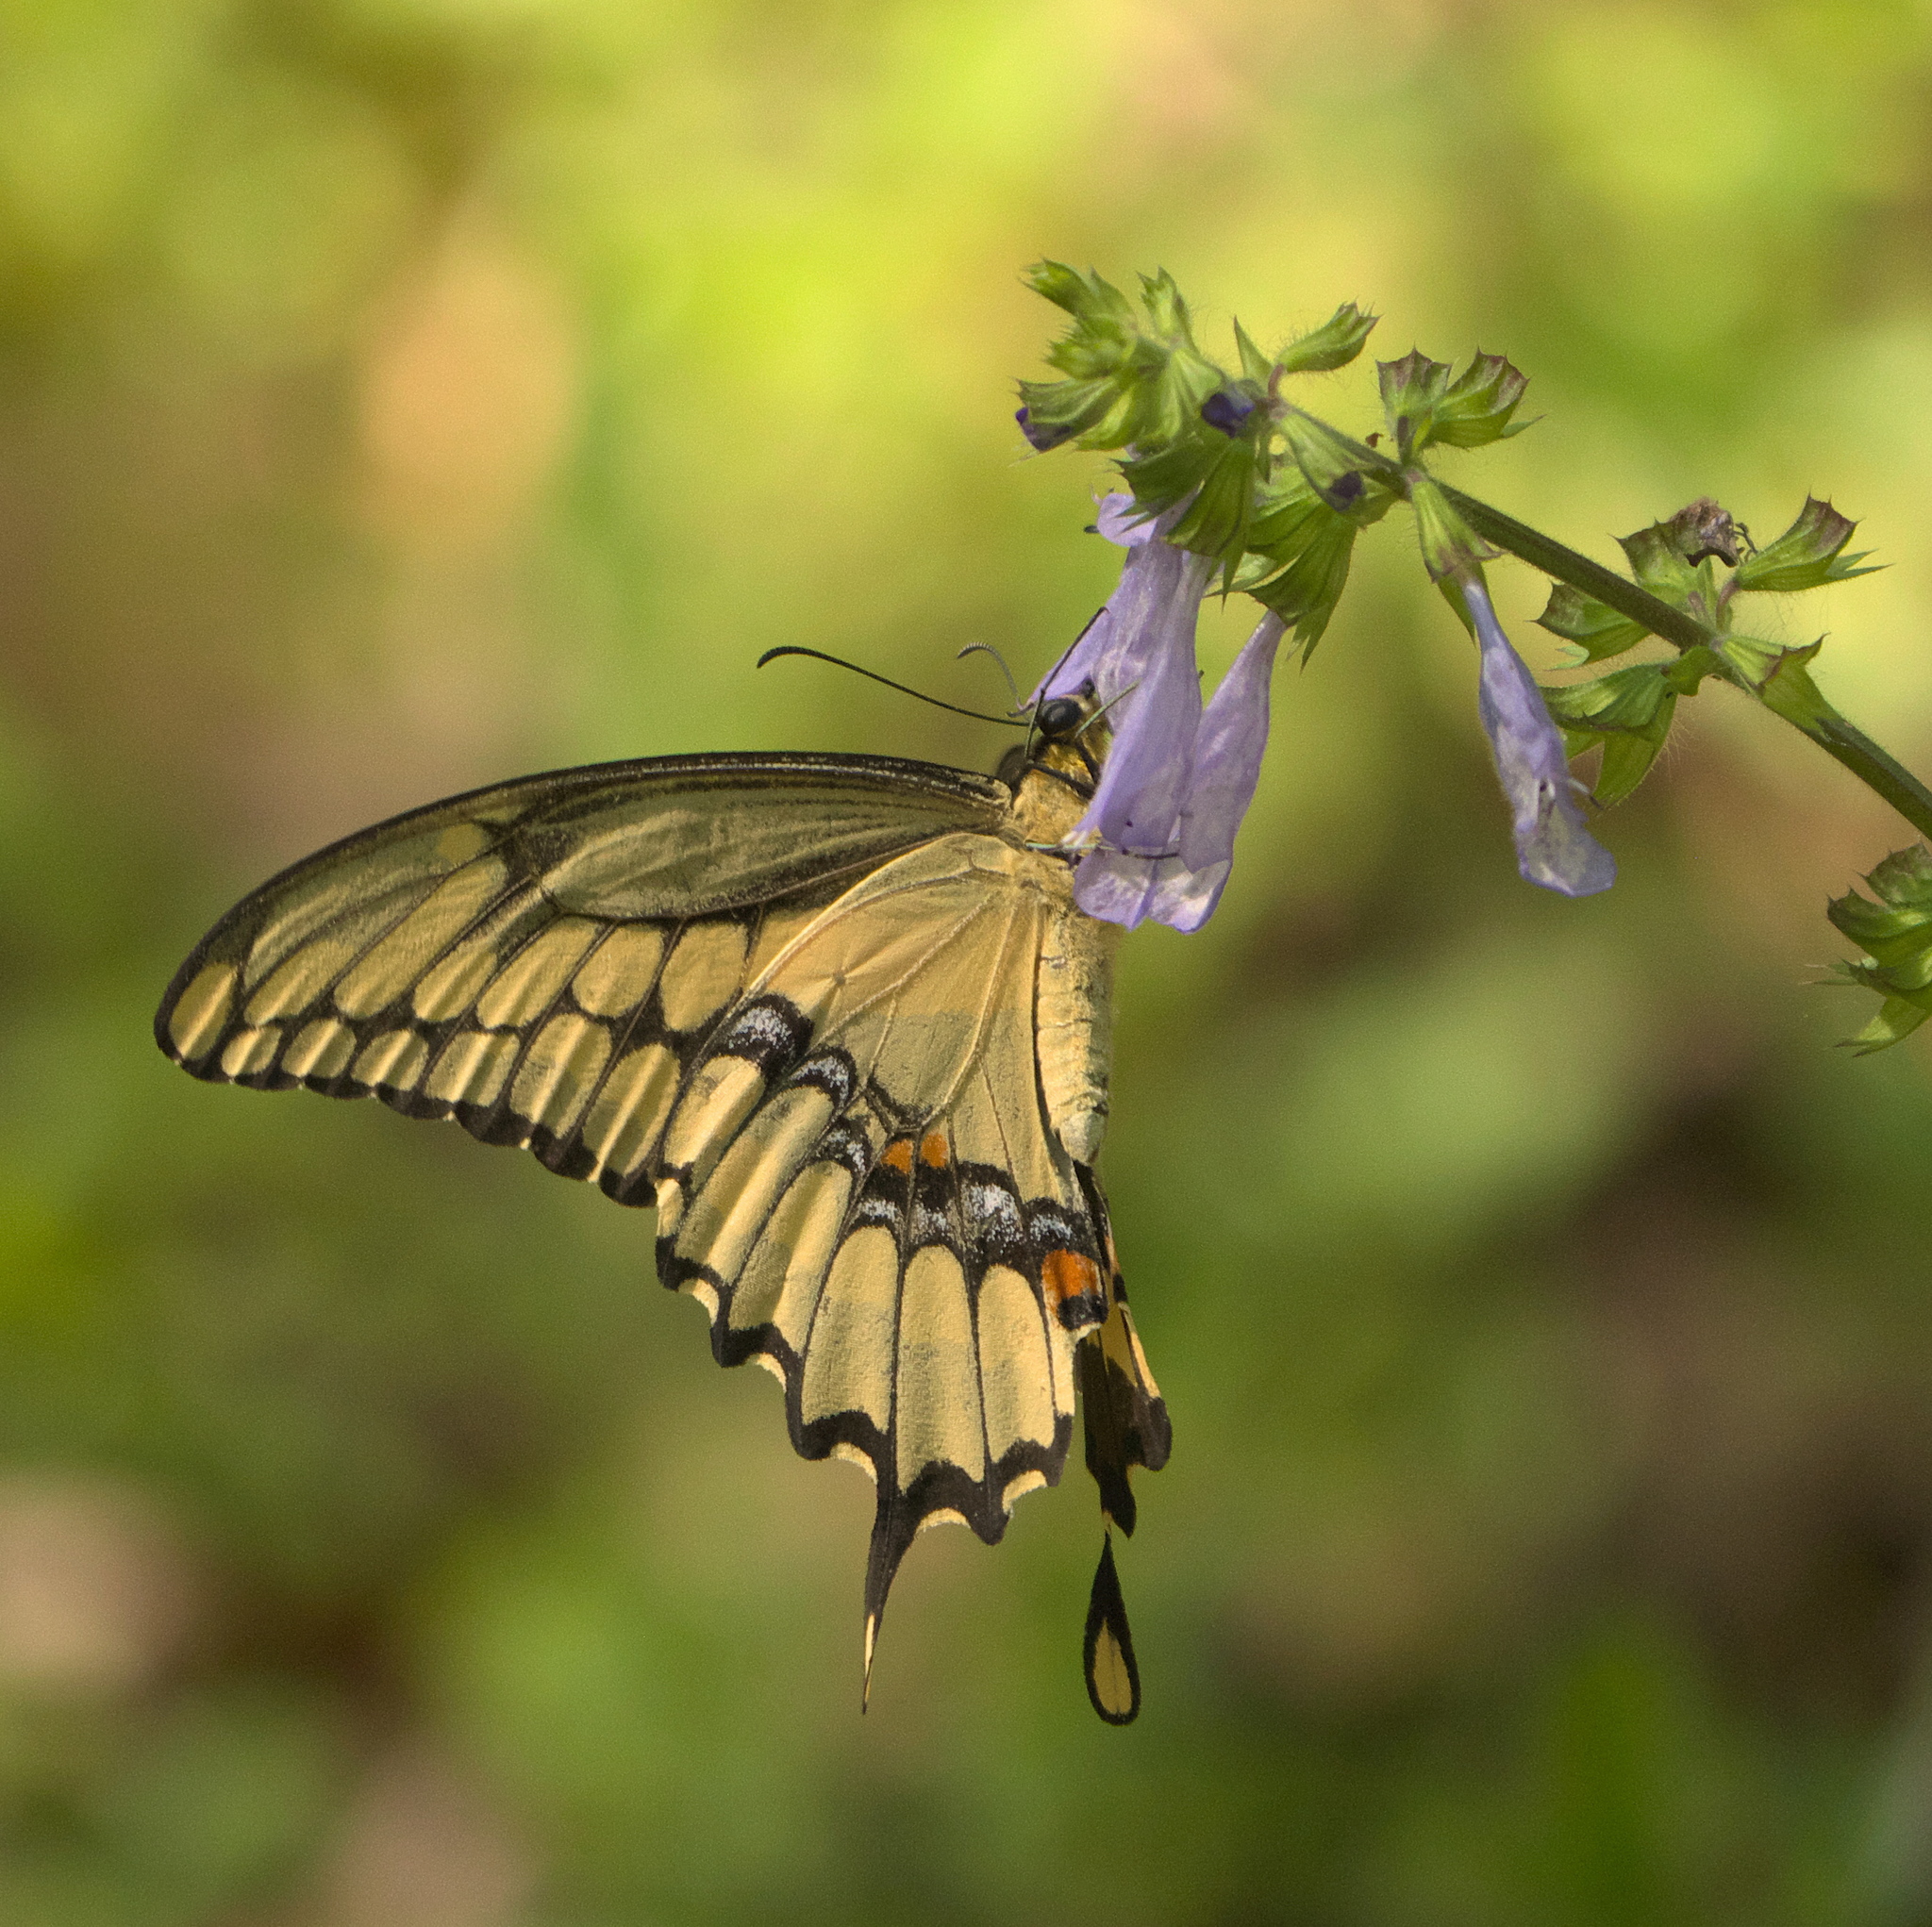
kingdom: Animalia
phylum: Arthropoda
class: Insecta
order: Lepidoptera
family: Papilionidae
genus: Papilio
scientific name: Papilio cresphontes
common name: Giant swallowtail
